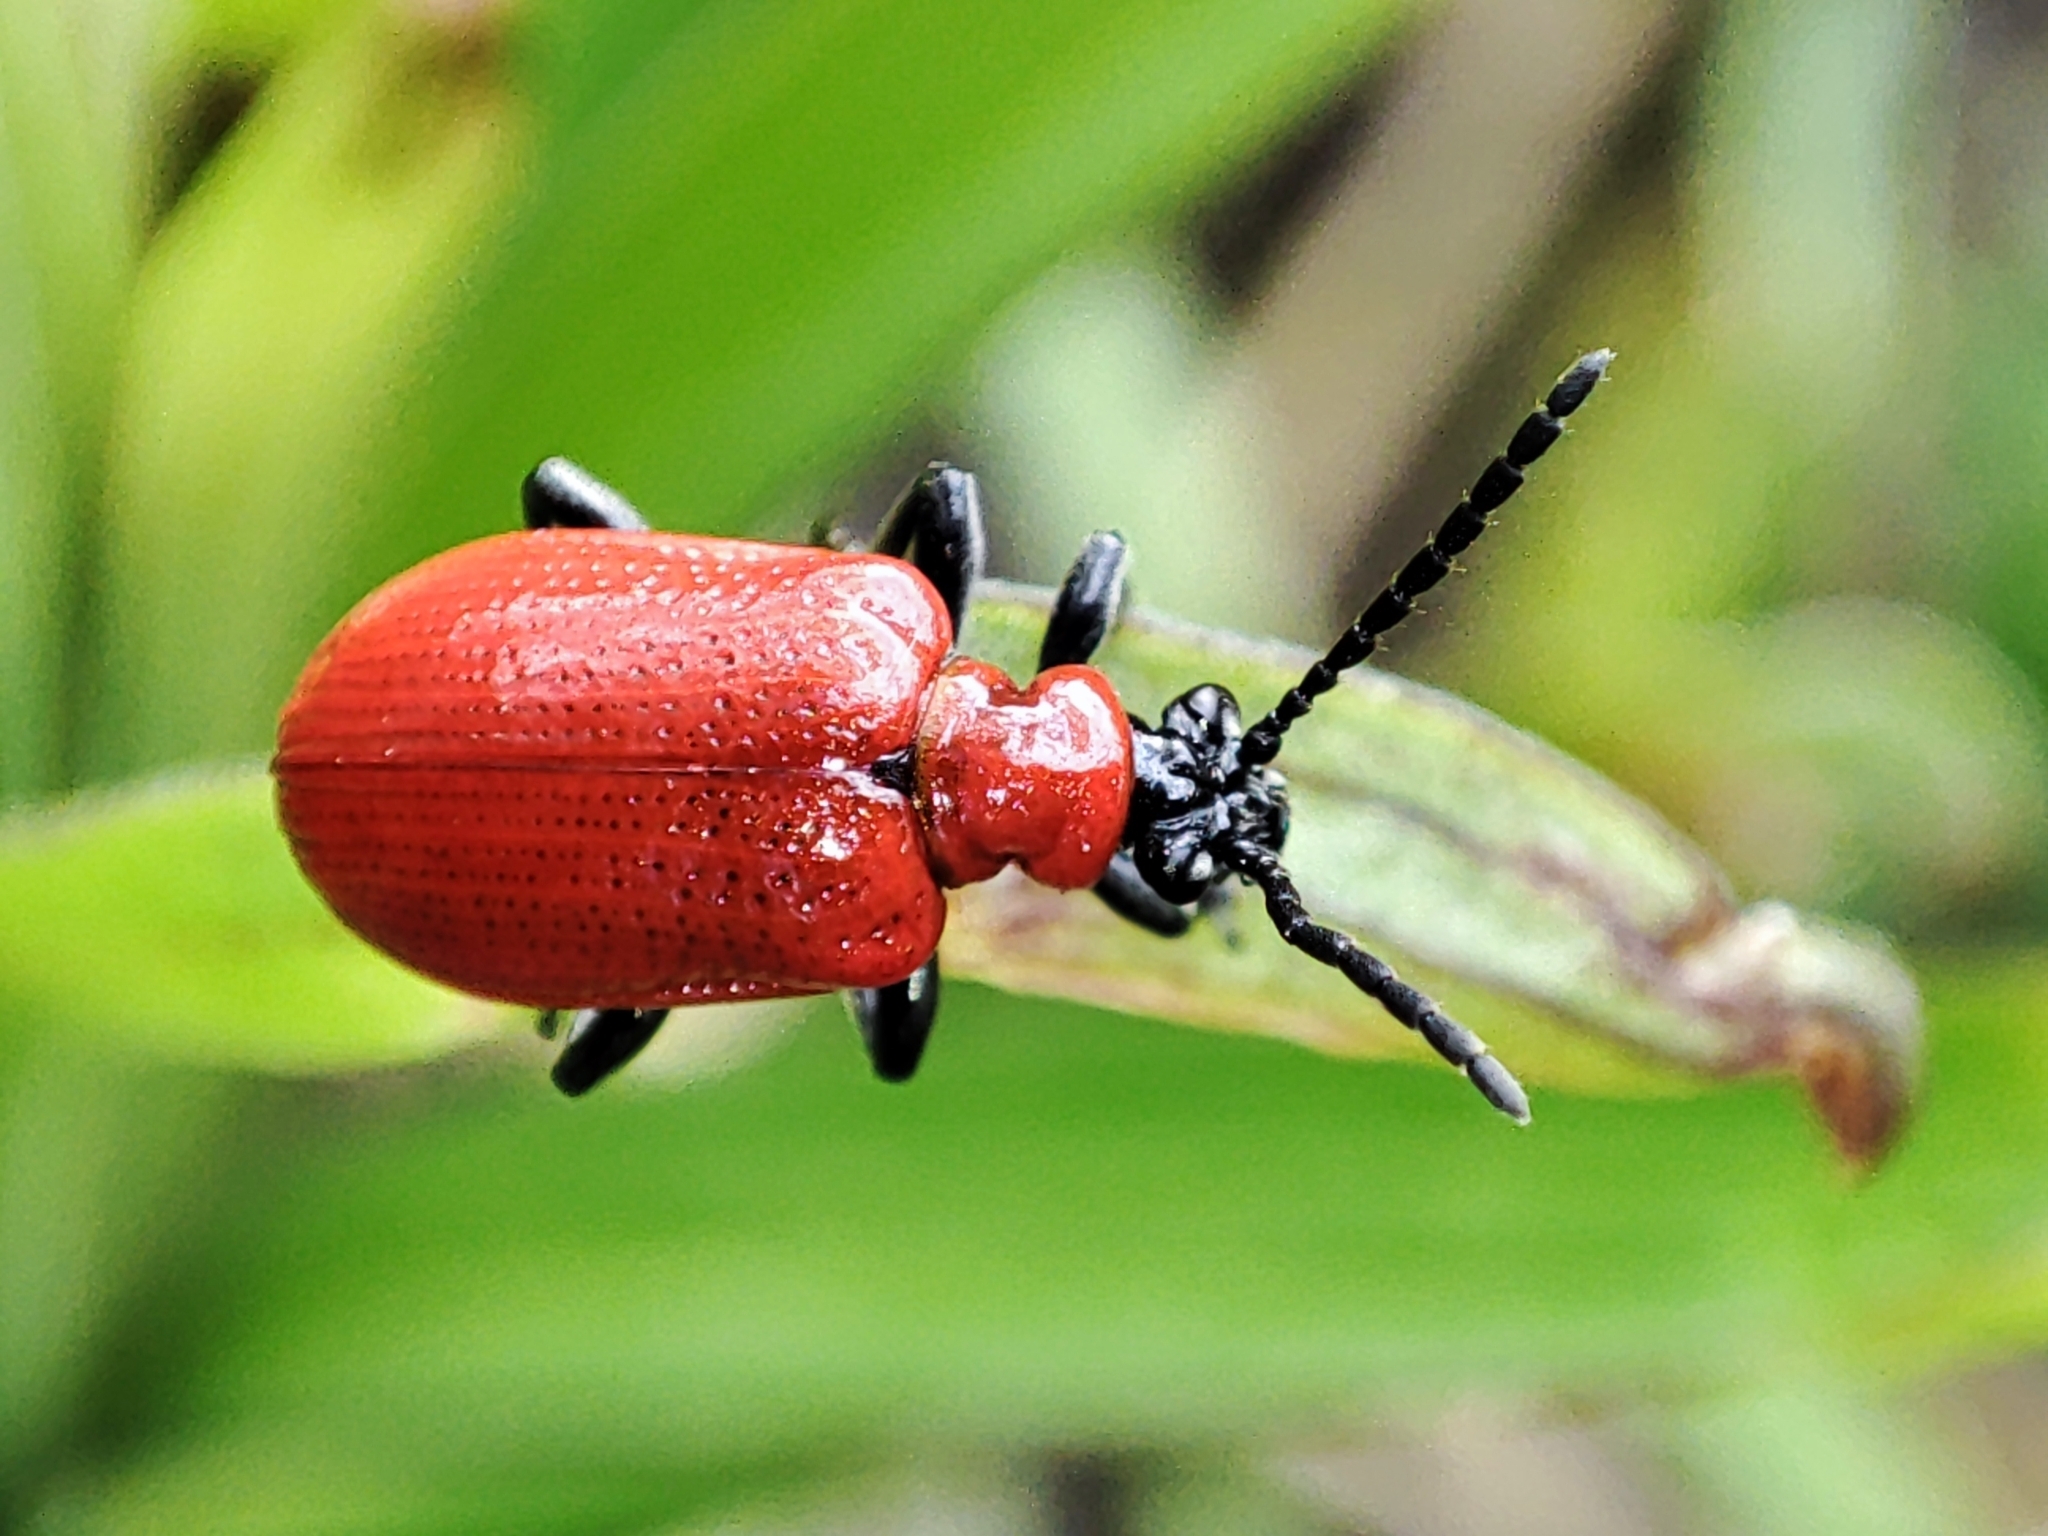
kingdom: Animalia
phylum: Arthropoda
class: Insecta
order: Coleoptera
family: Chrysomelidae
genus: Lilioceris
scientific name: Lilioceris lilii
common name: Lily beetle
